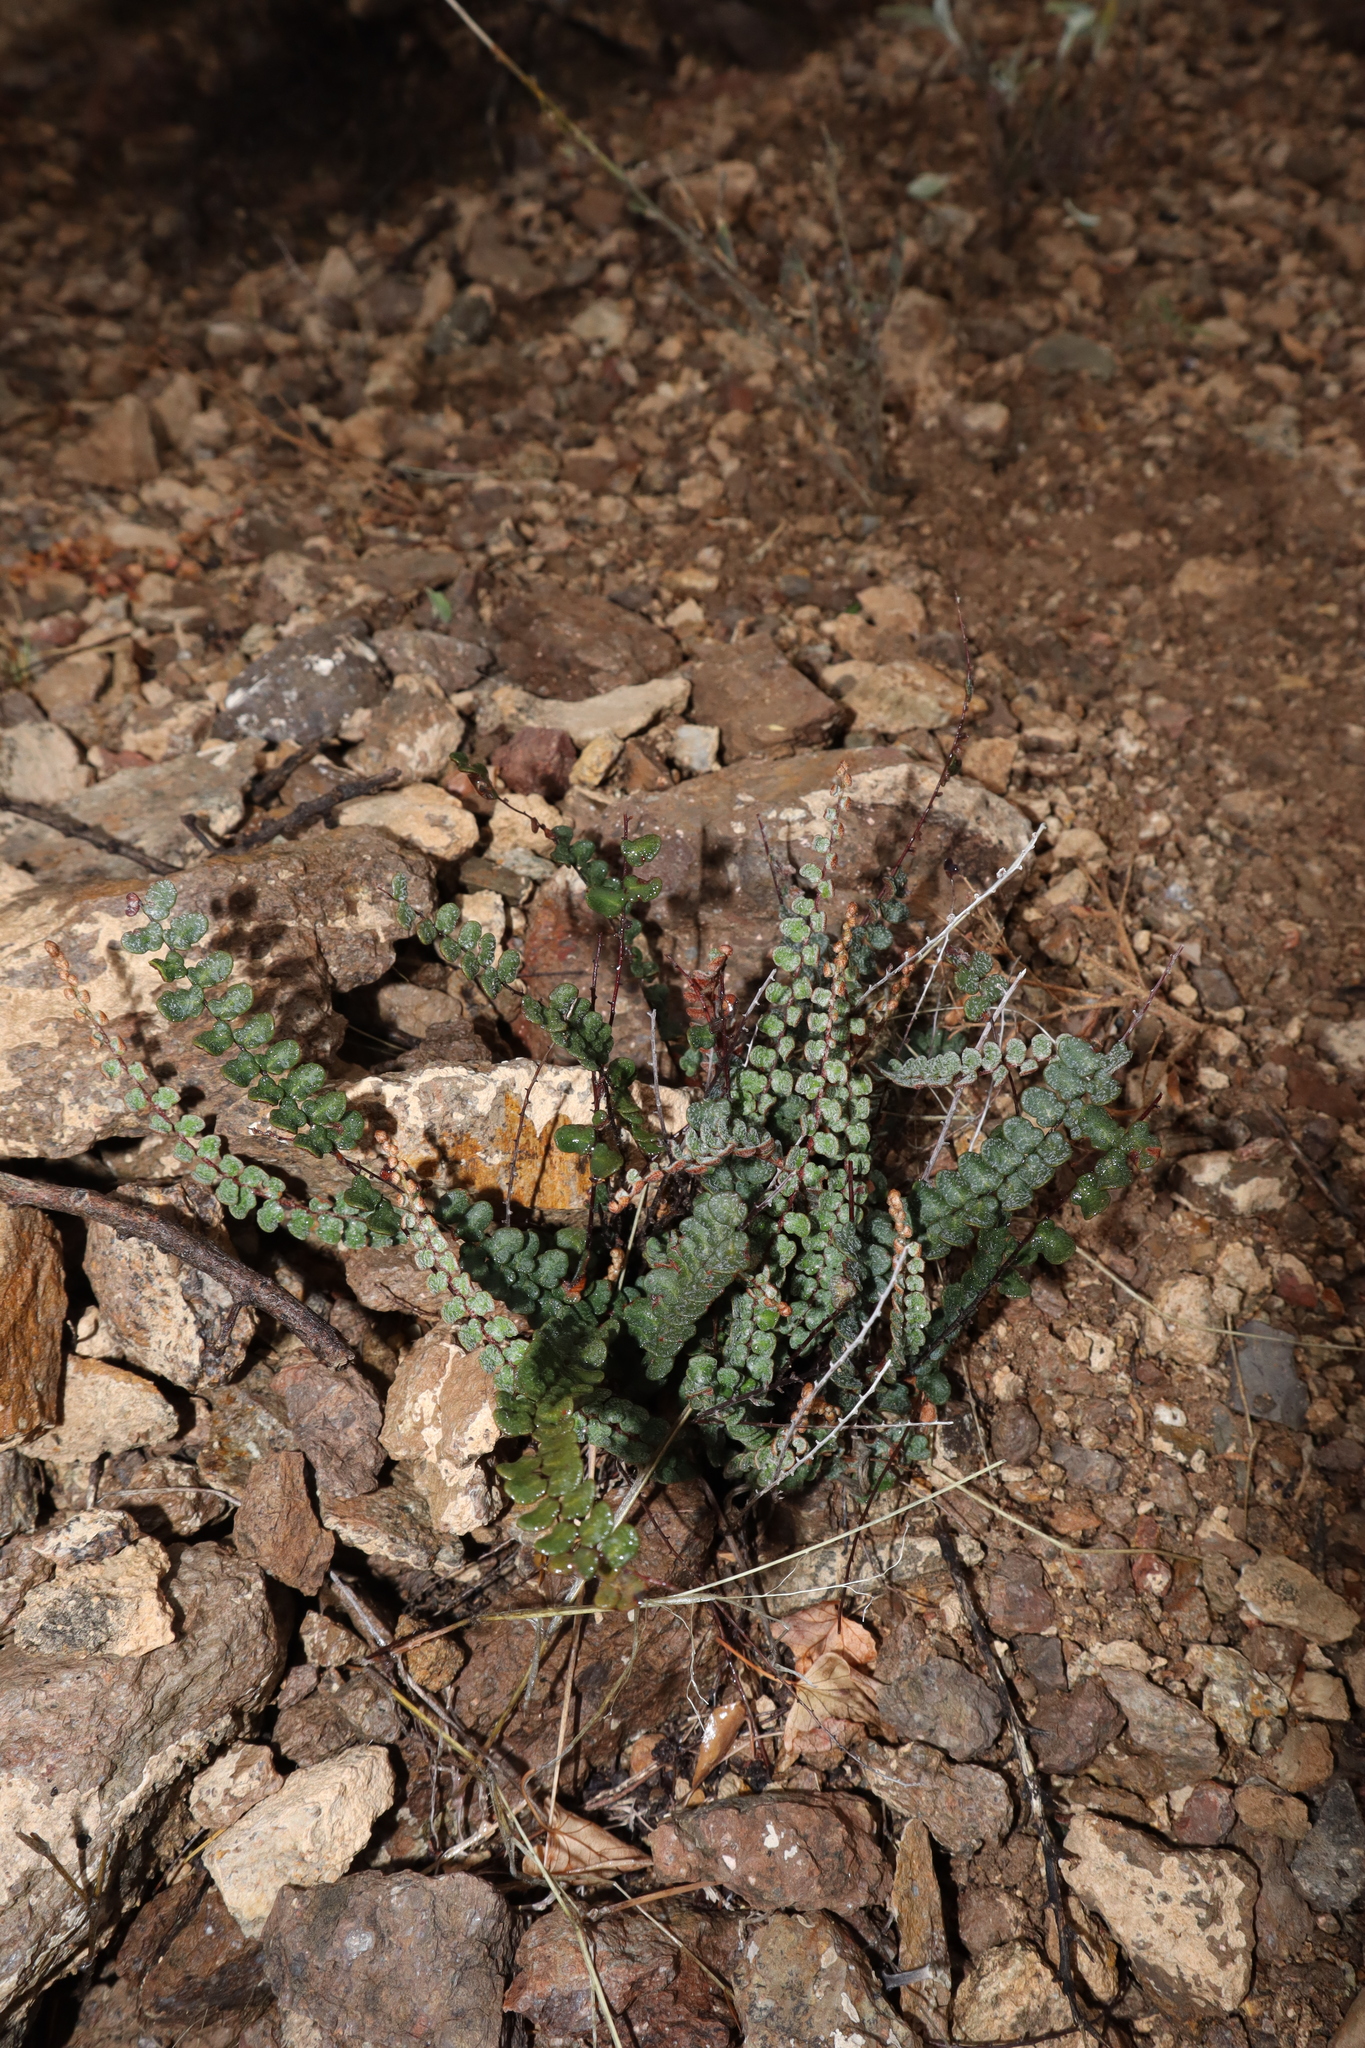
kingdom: Plantae
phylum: Tracheophyta
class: Polypodiopsida
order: Polypodiales
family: Pteridaceae
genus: Astrolepis
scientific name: Astrolepis cochisensis
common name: Scaly cloak fern
